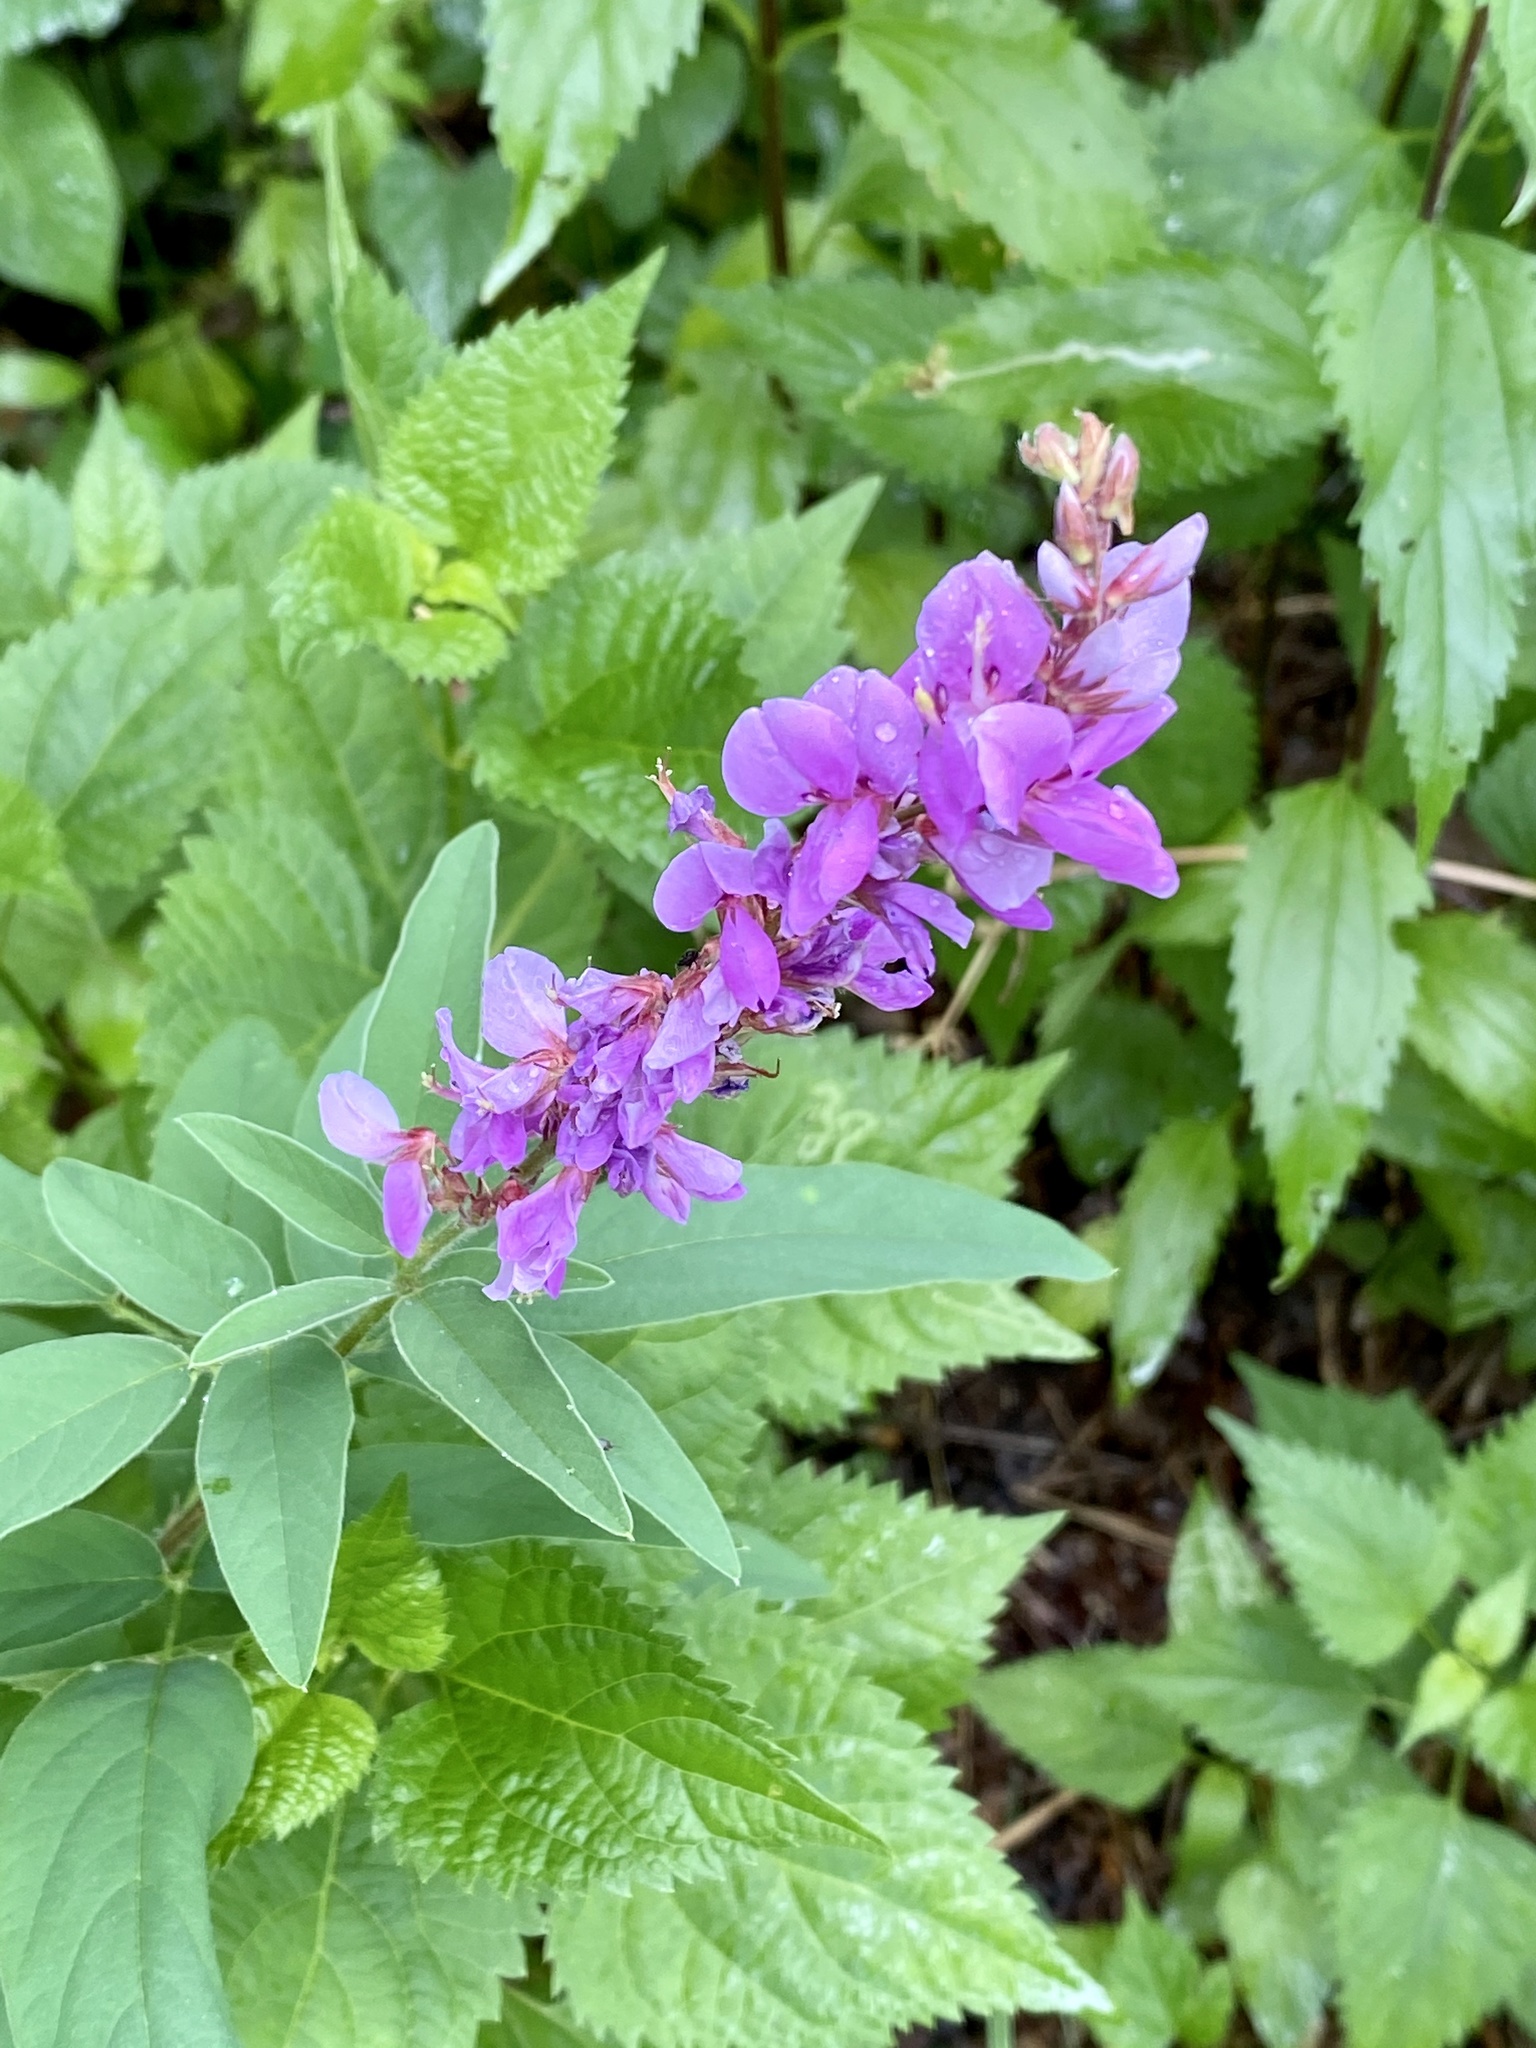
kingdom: Plantae
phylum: Tracheophyta
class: Magnoliopsida
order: Fabales
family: Fabaceae
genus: Desmodium
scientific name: Desmodium canadense
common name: Canada tick-trefoil
